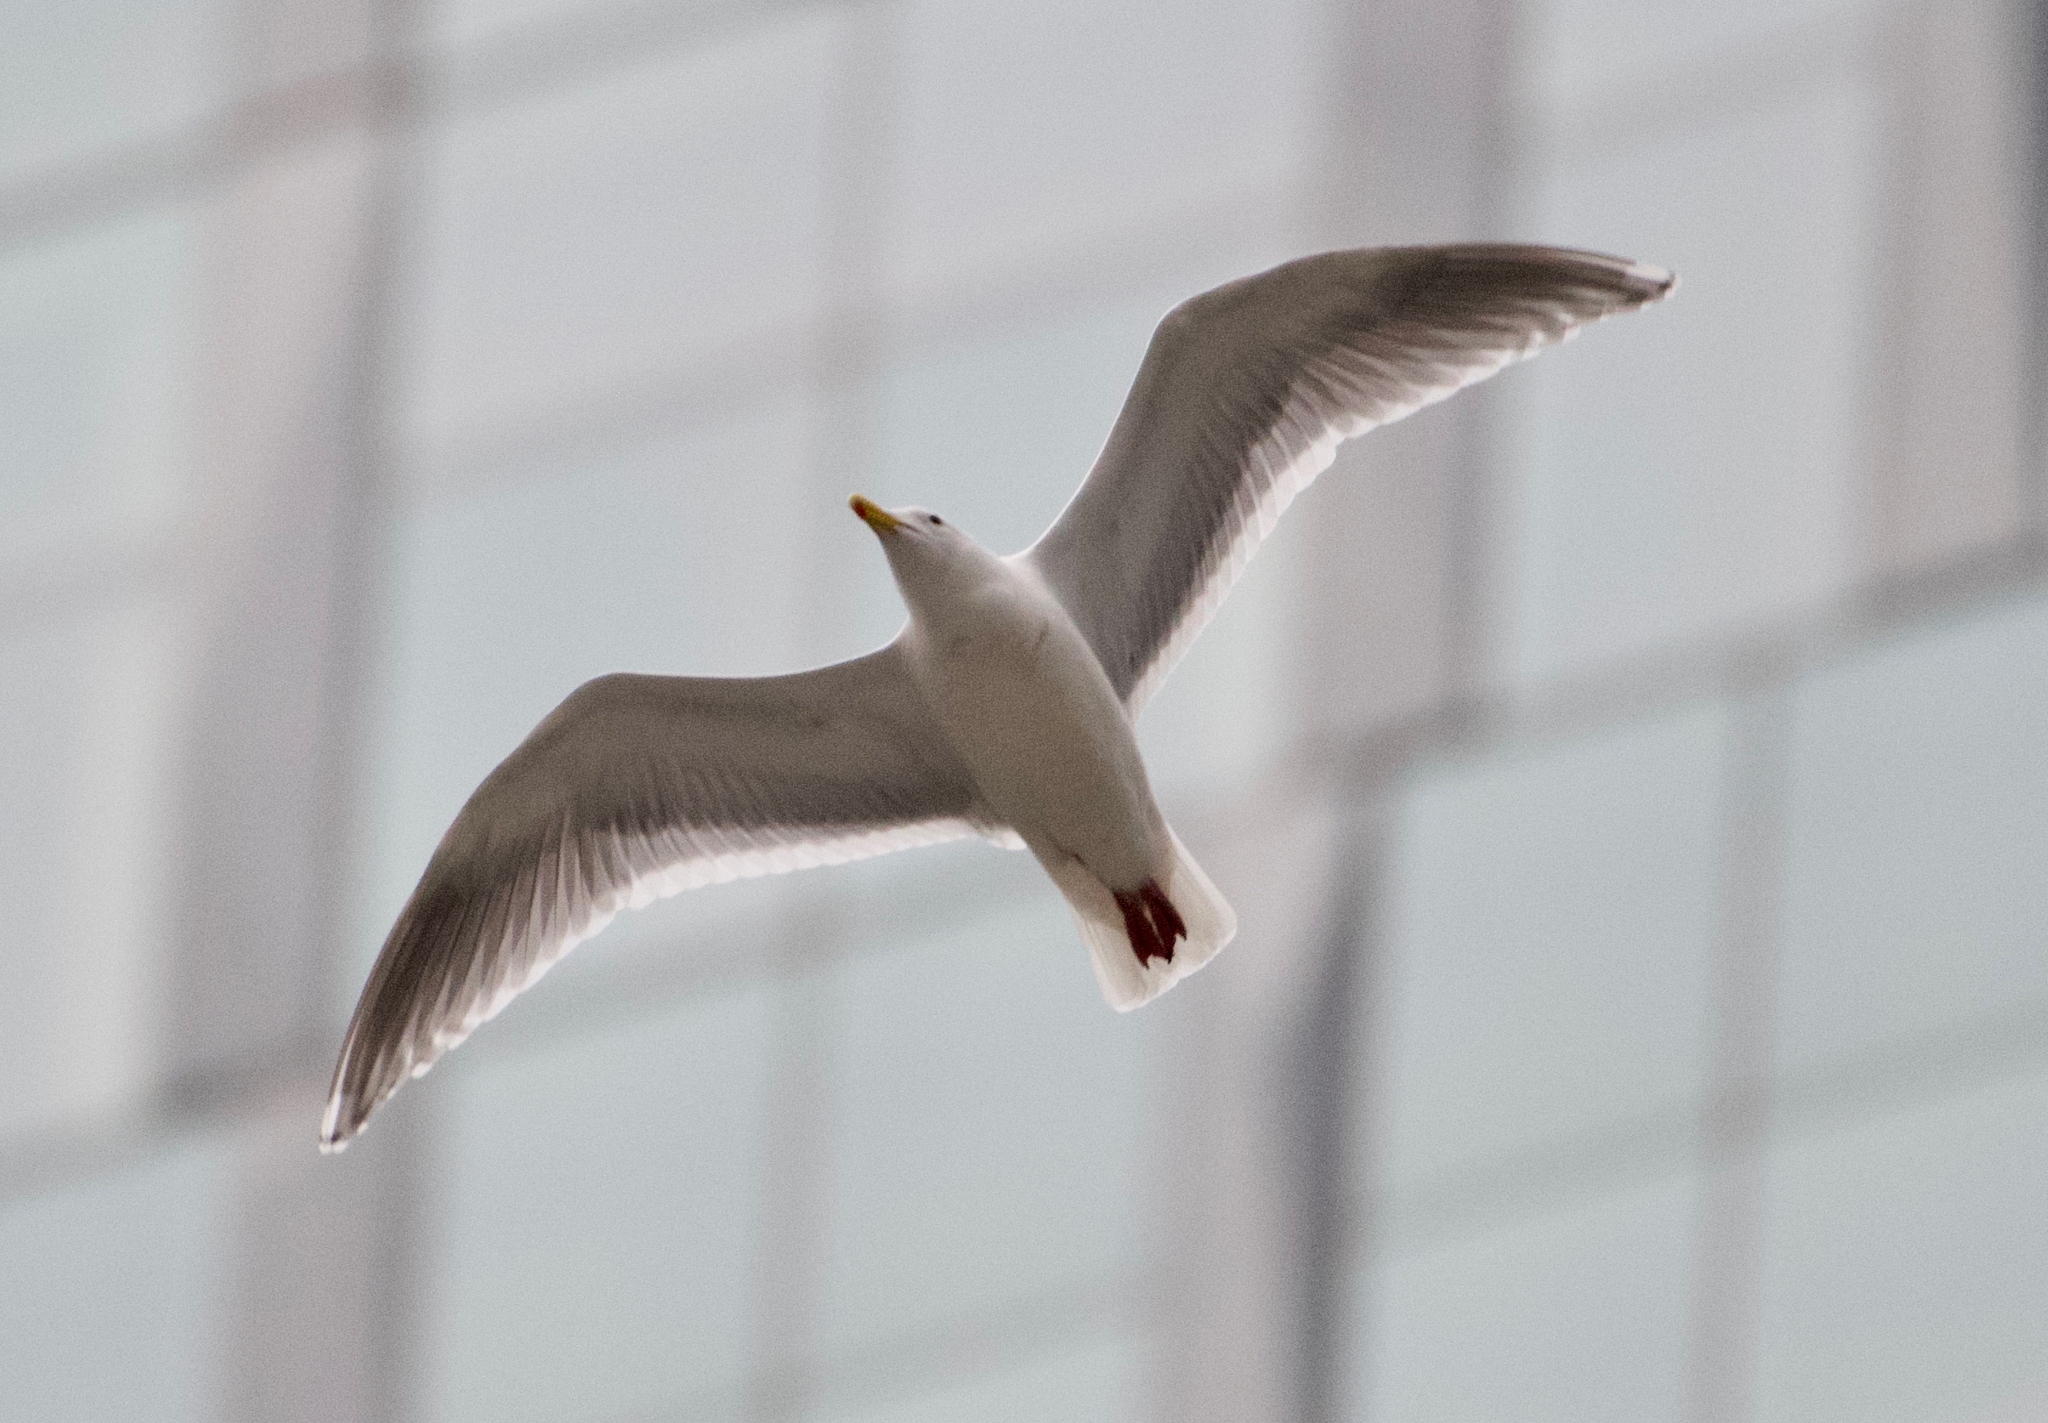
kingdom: Animalia
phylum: Chordata
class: Aves
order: Charadriiformes
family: Laridae
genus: Larus
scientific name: Larus
